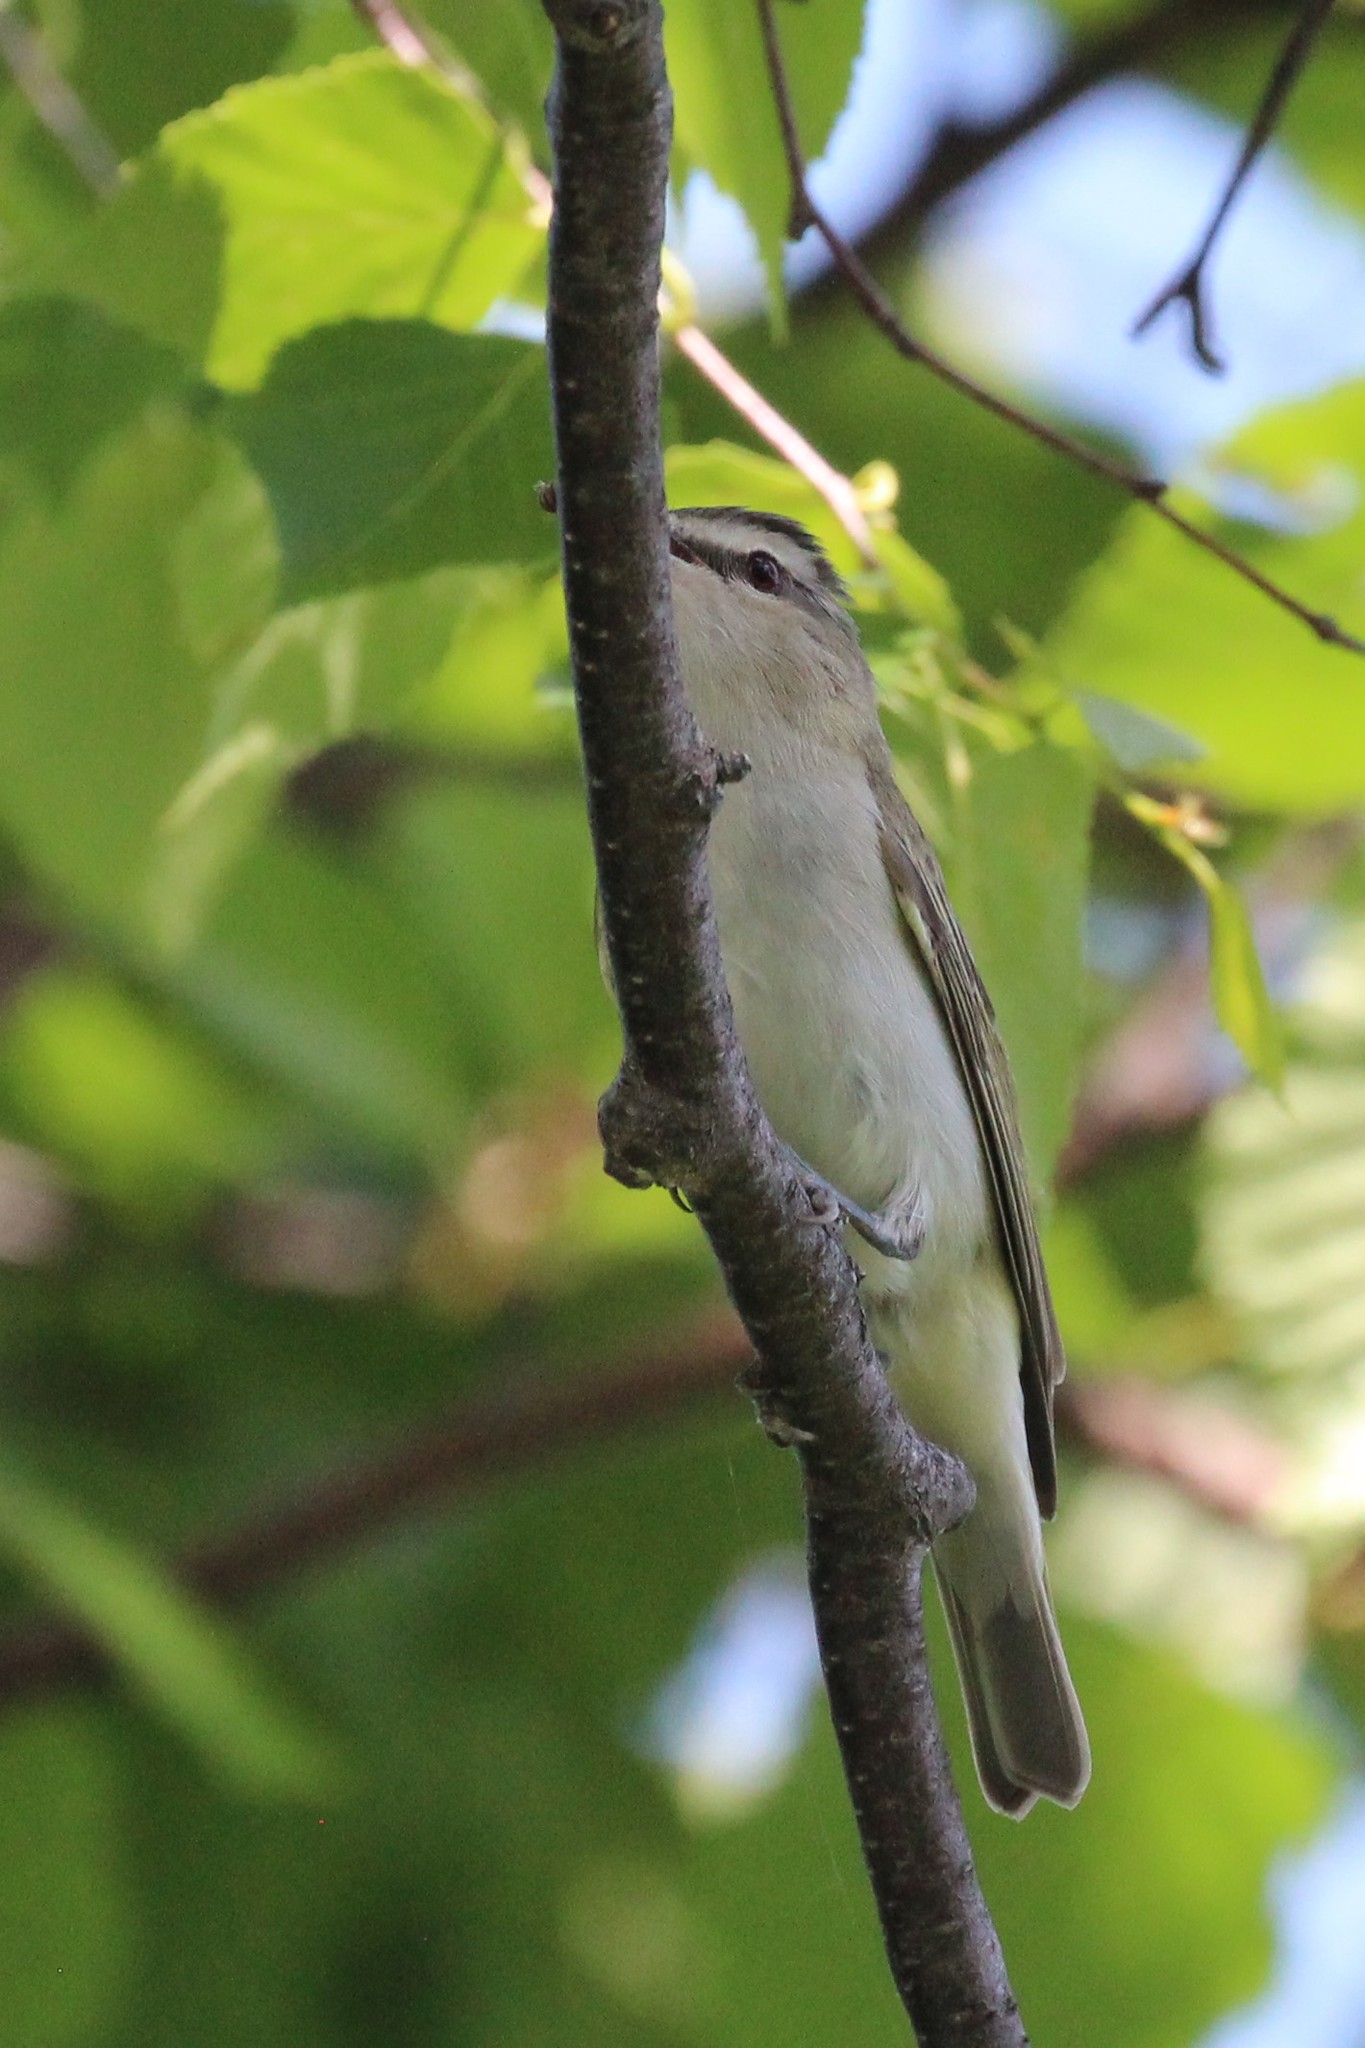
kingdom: Animalia
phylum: Chordata
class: Aves
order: Passeriformes
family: Vireonidae
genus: Vireo
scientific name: Vireo olivaceus
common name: Red-eyed vireo
